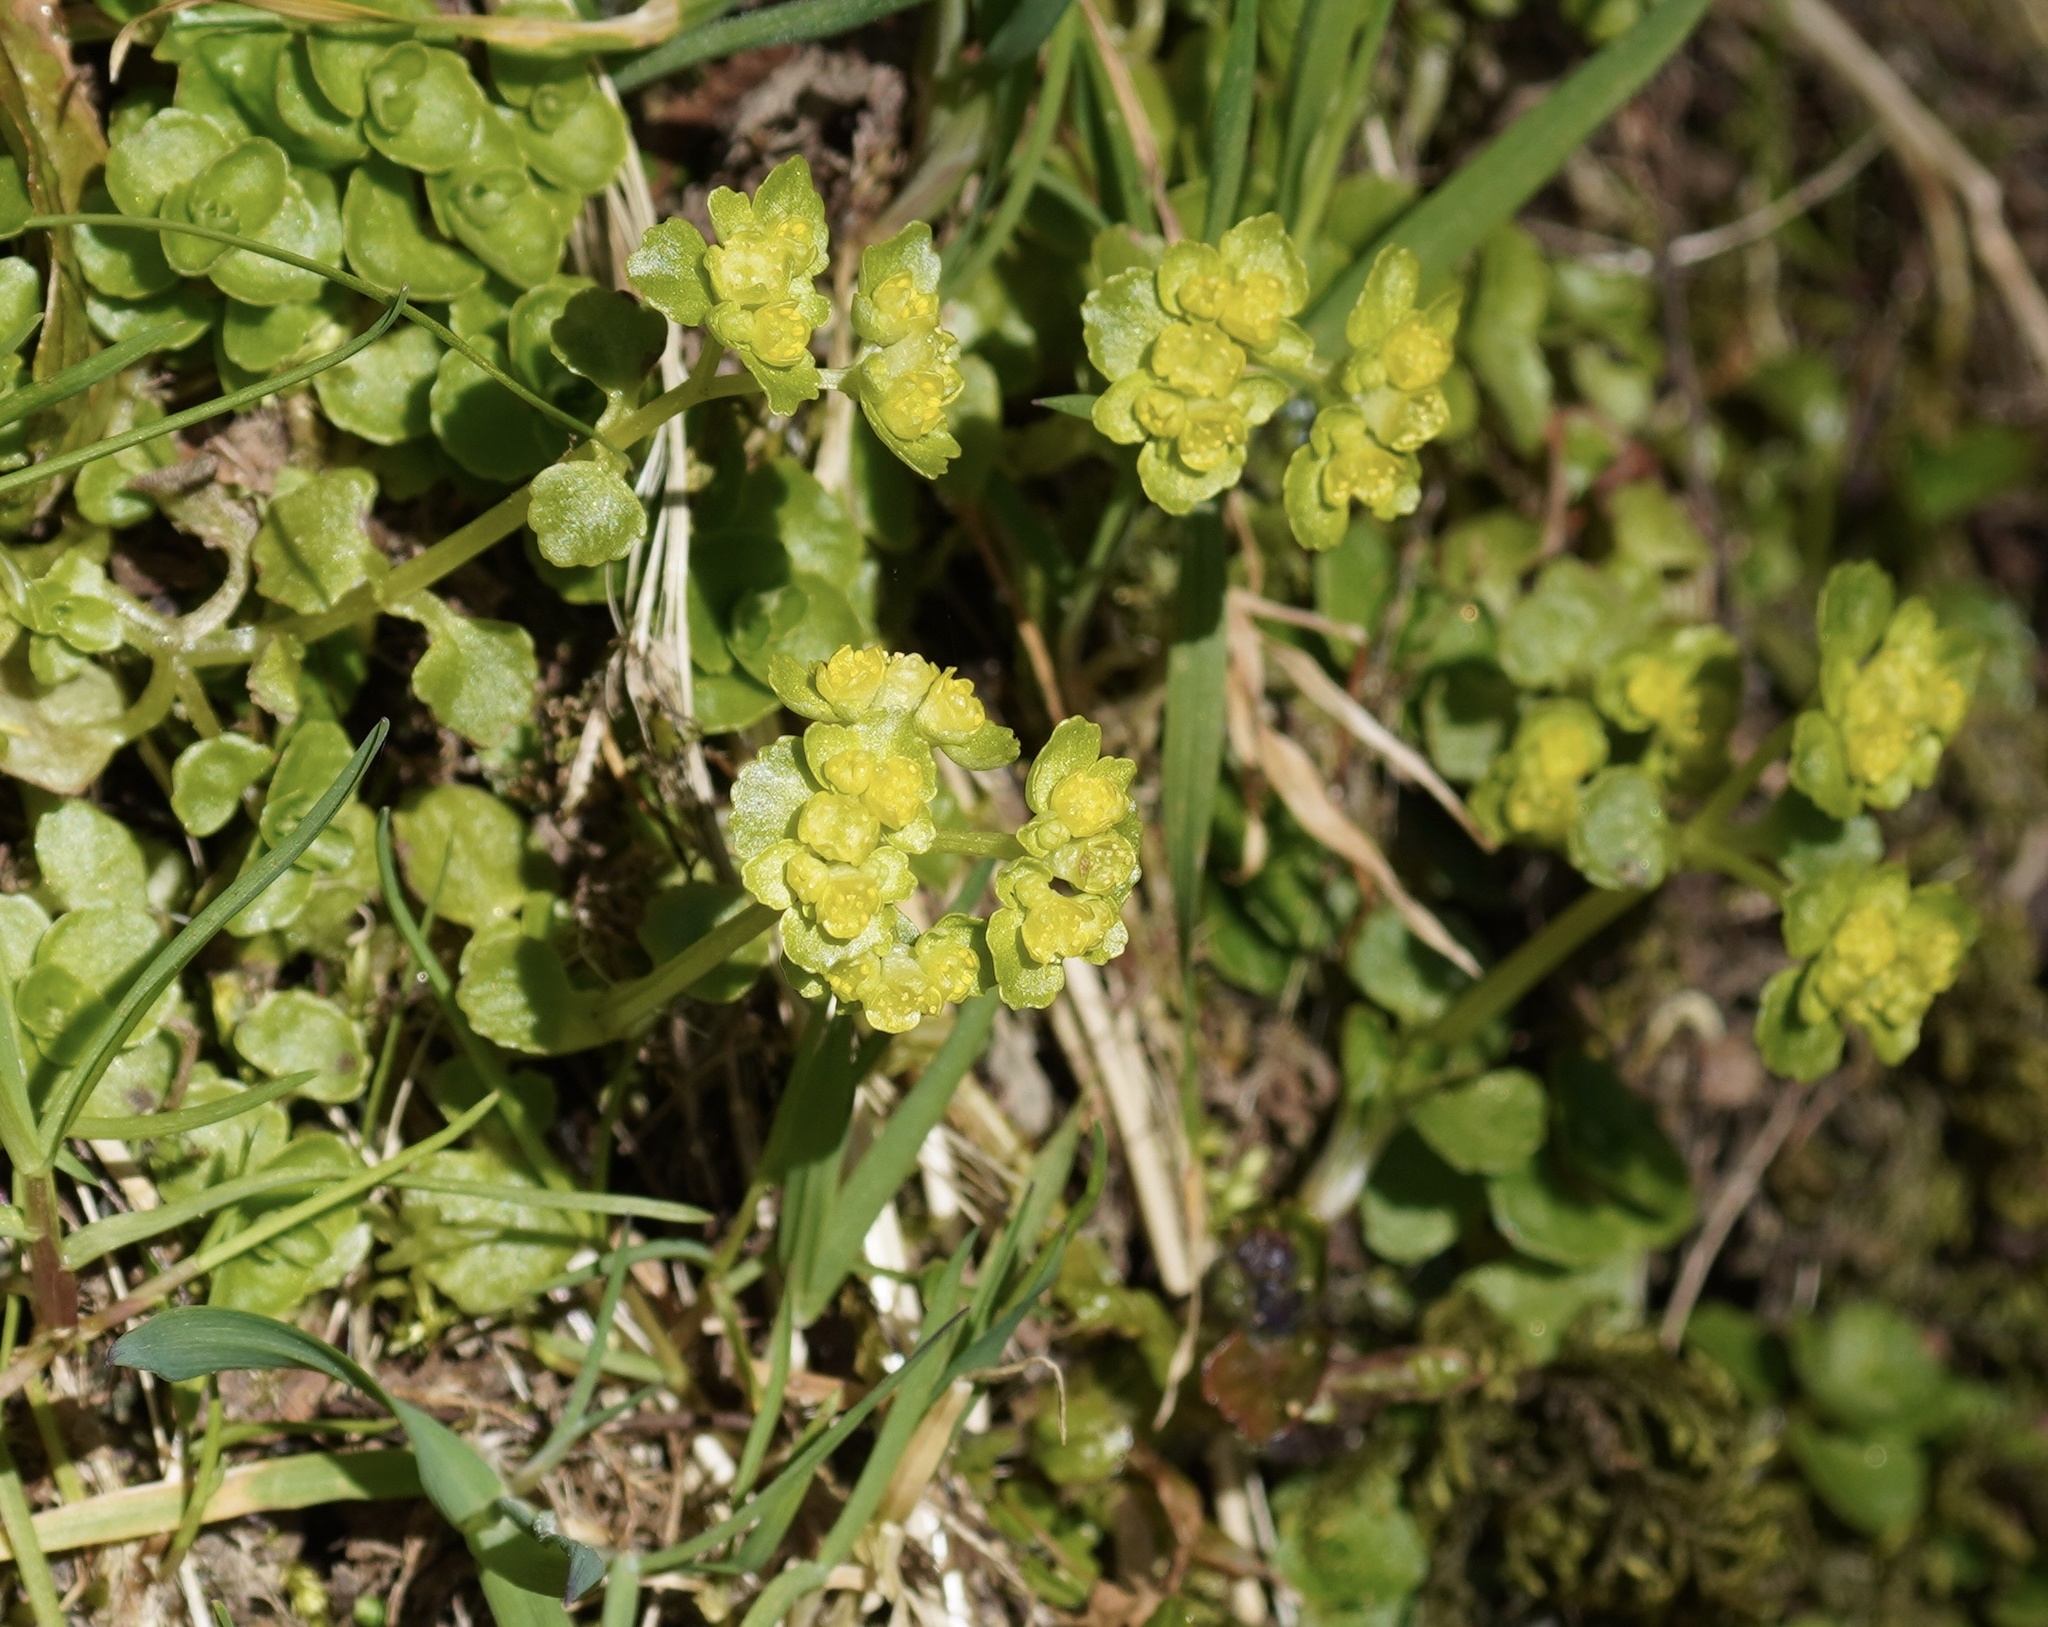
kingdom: Plantae
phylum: Tracheophyta
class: Magnoliopsida
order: Saxifragales
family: Saxifragaceae
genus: Chrysosplenium
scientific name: Chrysosplenium oppositifolium
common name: Opposite-leaved golden-saxifrage
